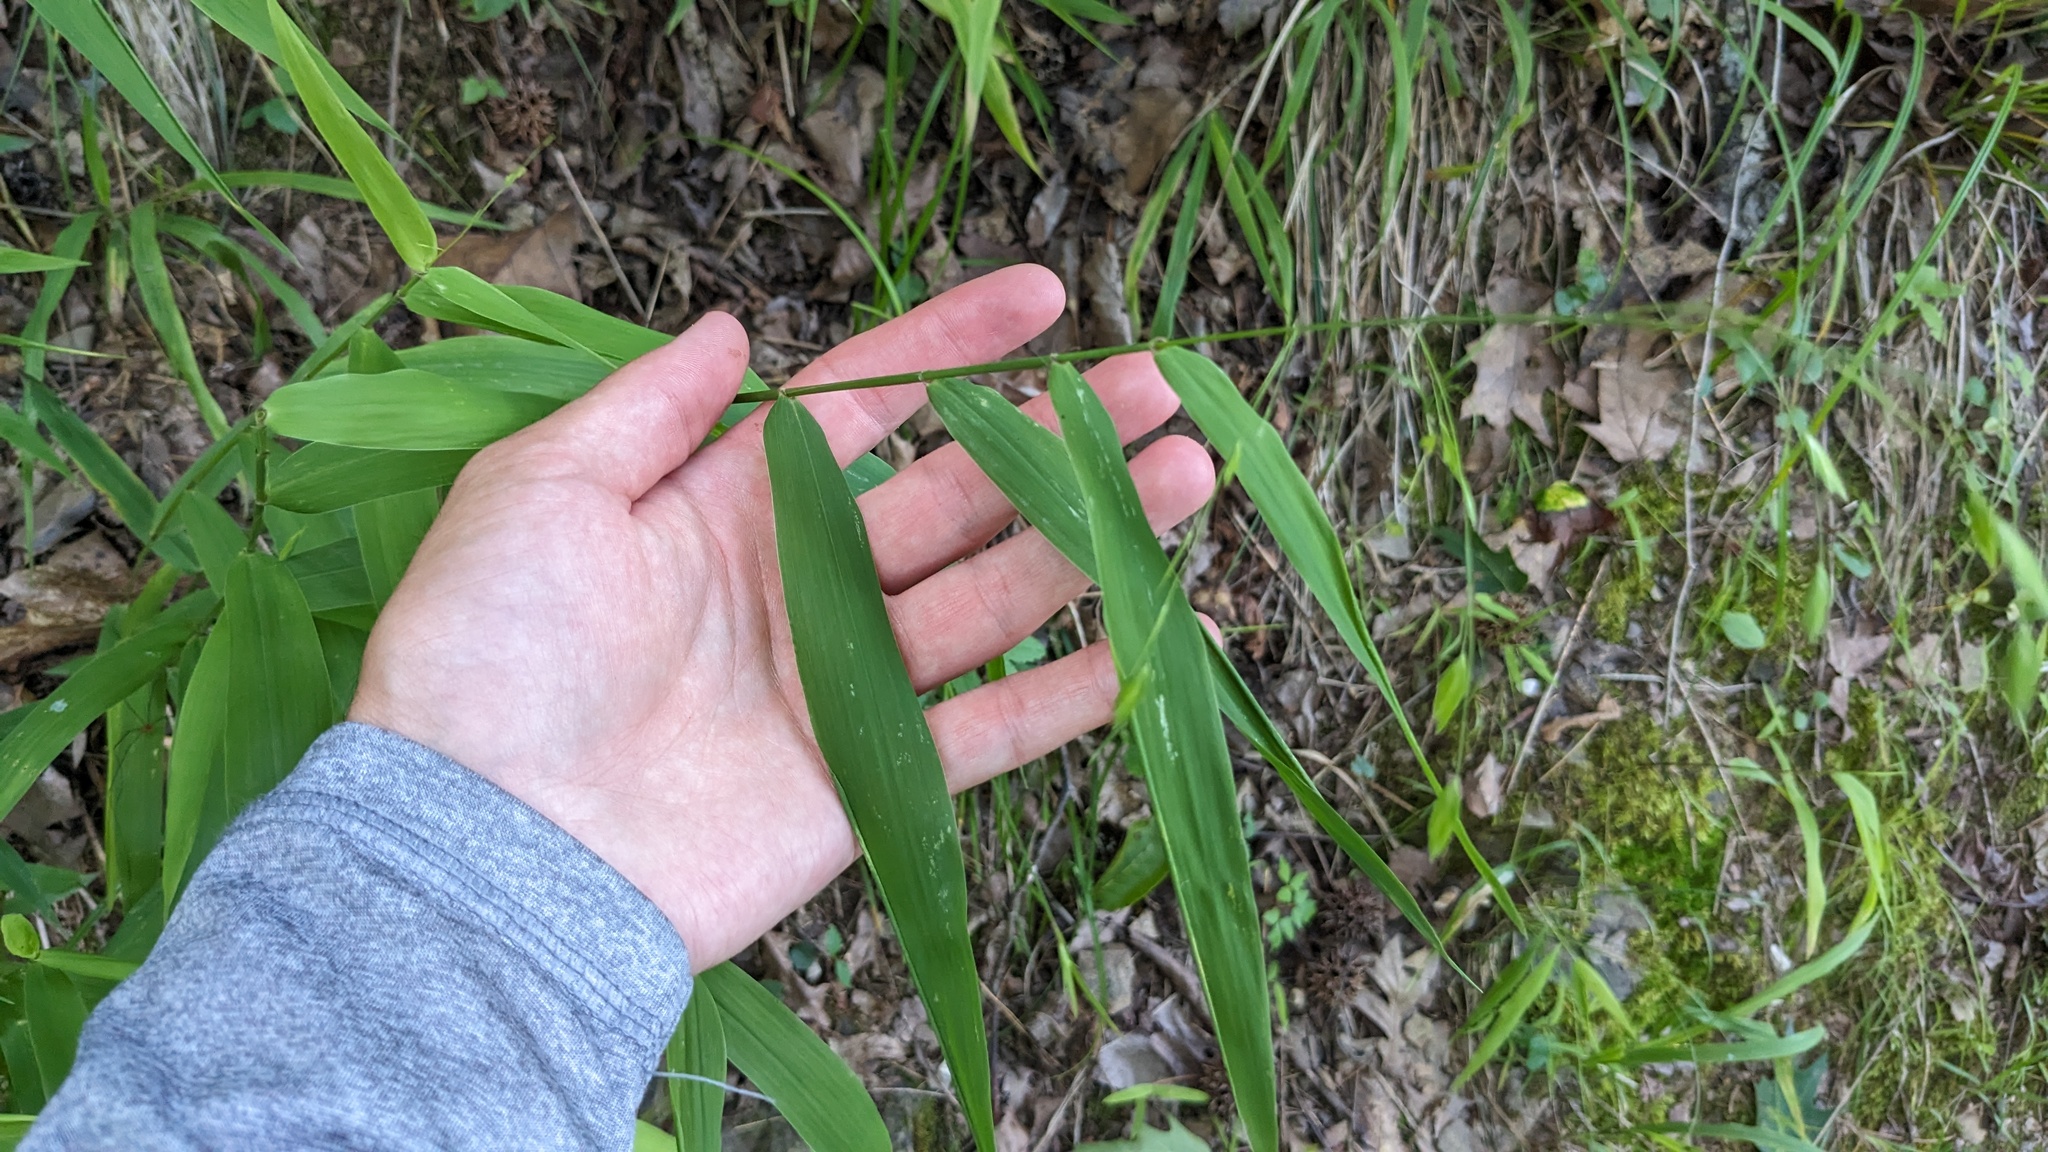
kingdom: Plantae
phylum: Tracheophyta
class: Liliopsida
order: Poales
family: Poaceae
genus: Chasmanthium
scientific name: Chasmanthium latifolium
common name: Broad-leaved chasmanthium
